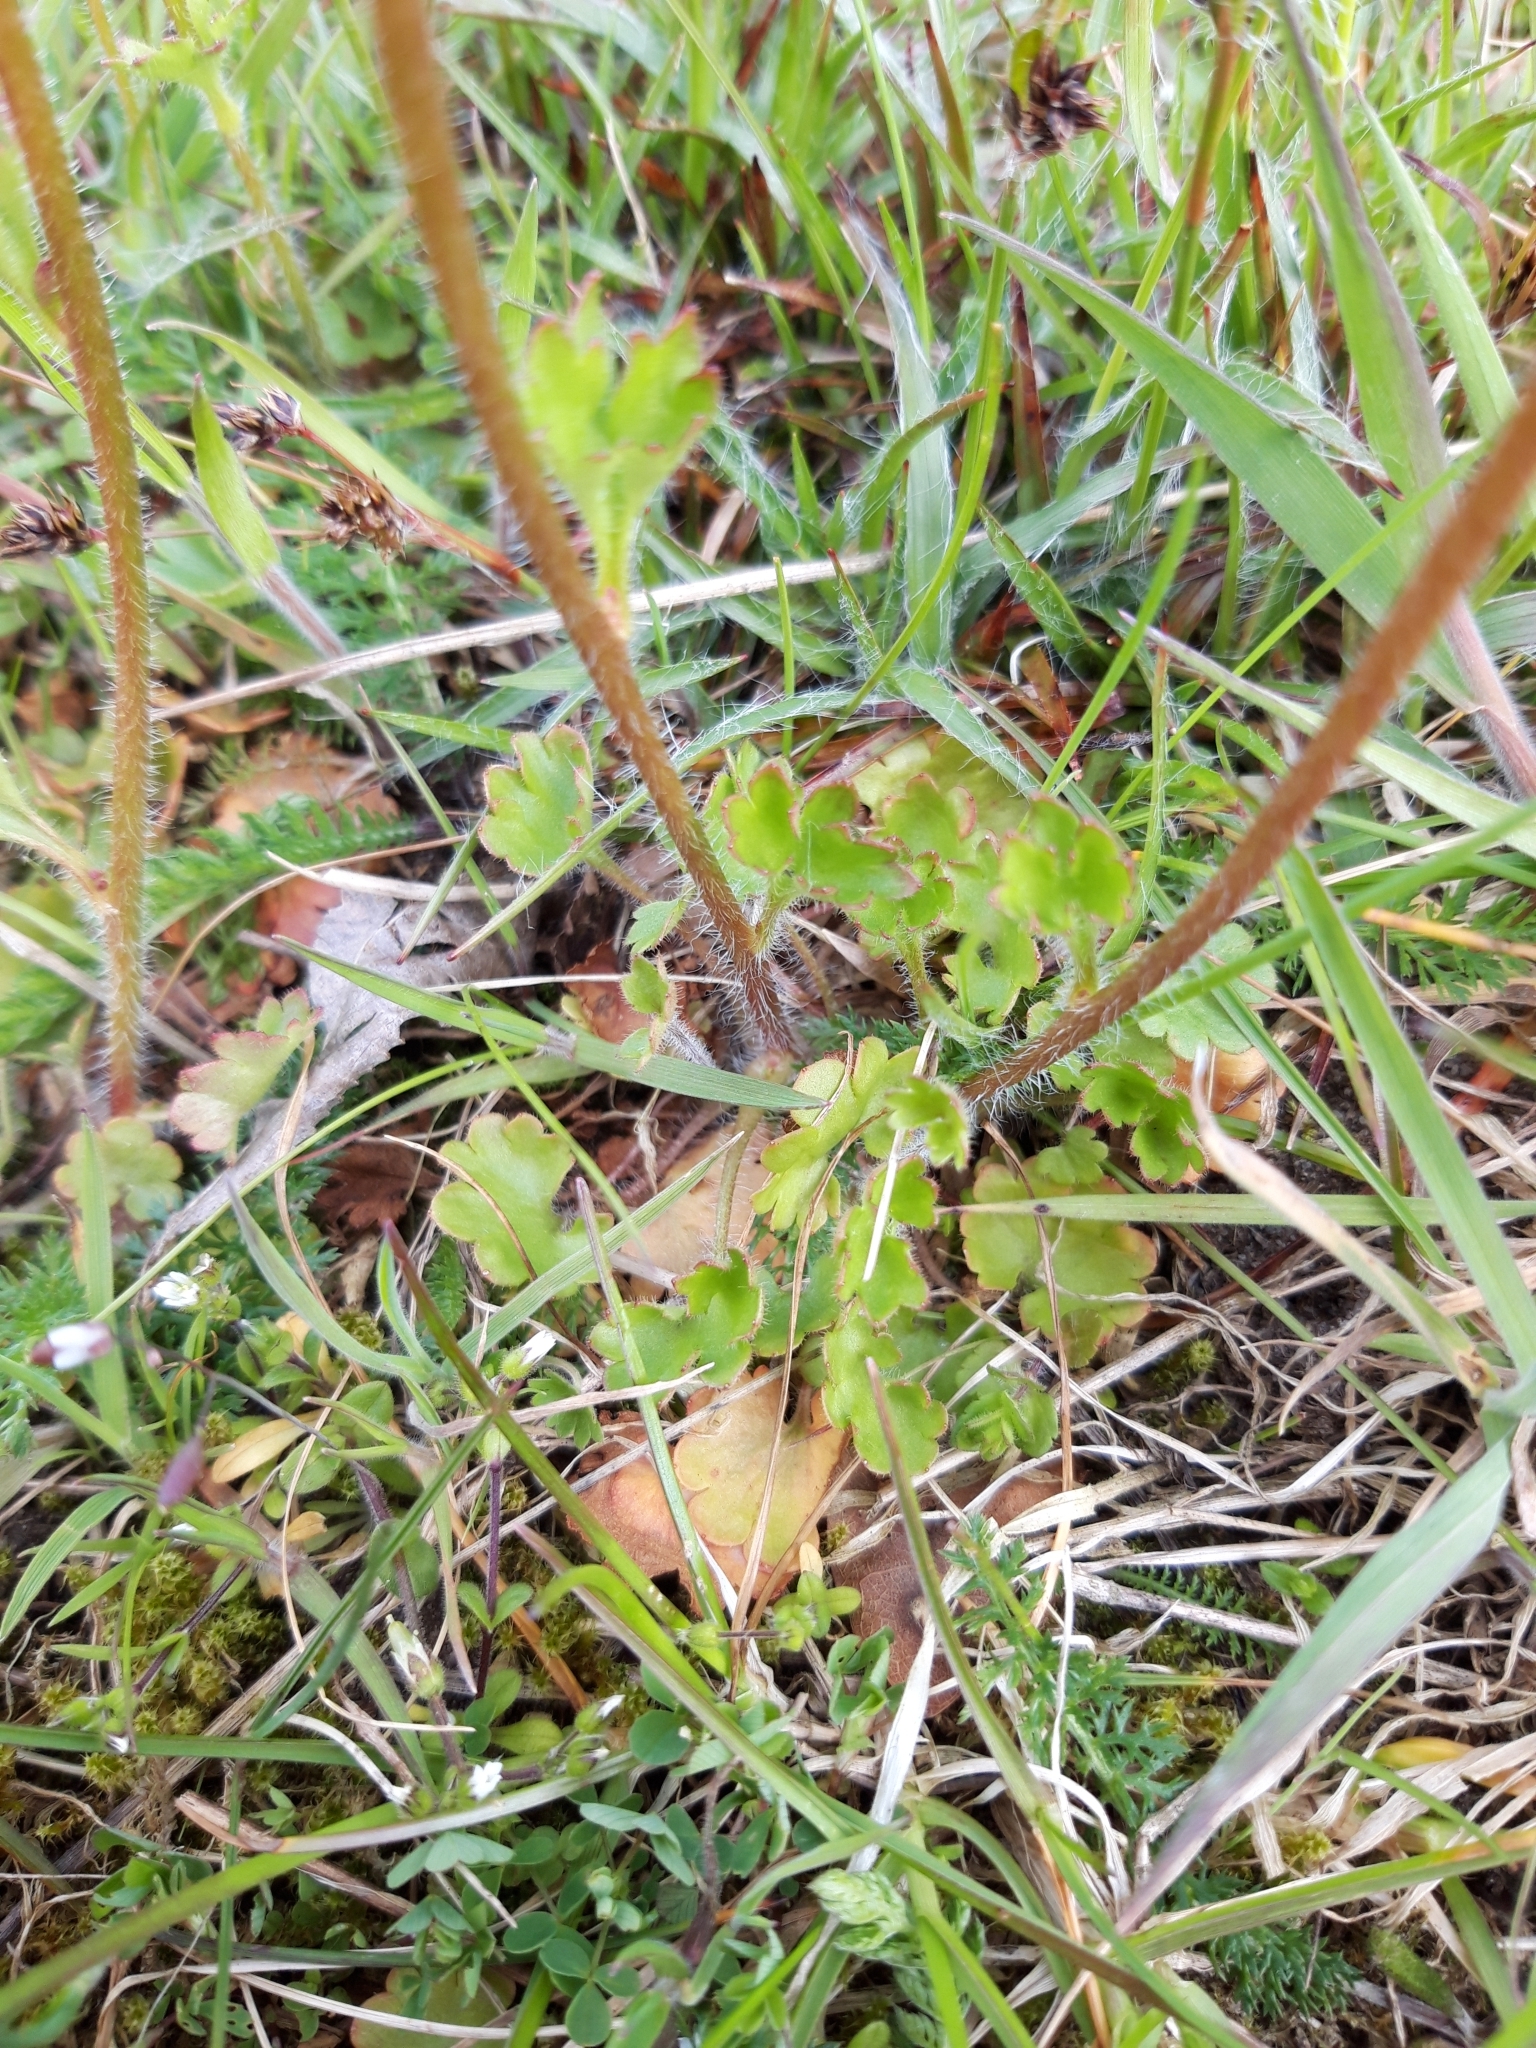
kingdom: Plantae
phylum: Tracheophyta
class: Magnoliopsida
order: Saxifragales
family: Saxifragaceae
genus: Saxifraga
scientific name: Saxifraga granulata
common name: Meadow saxifrage
